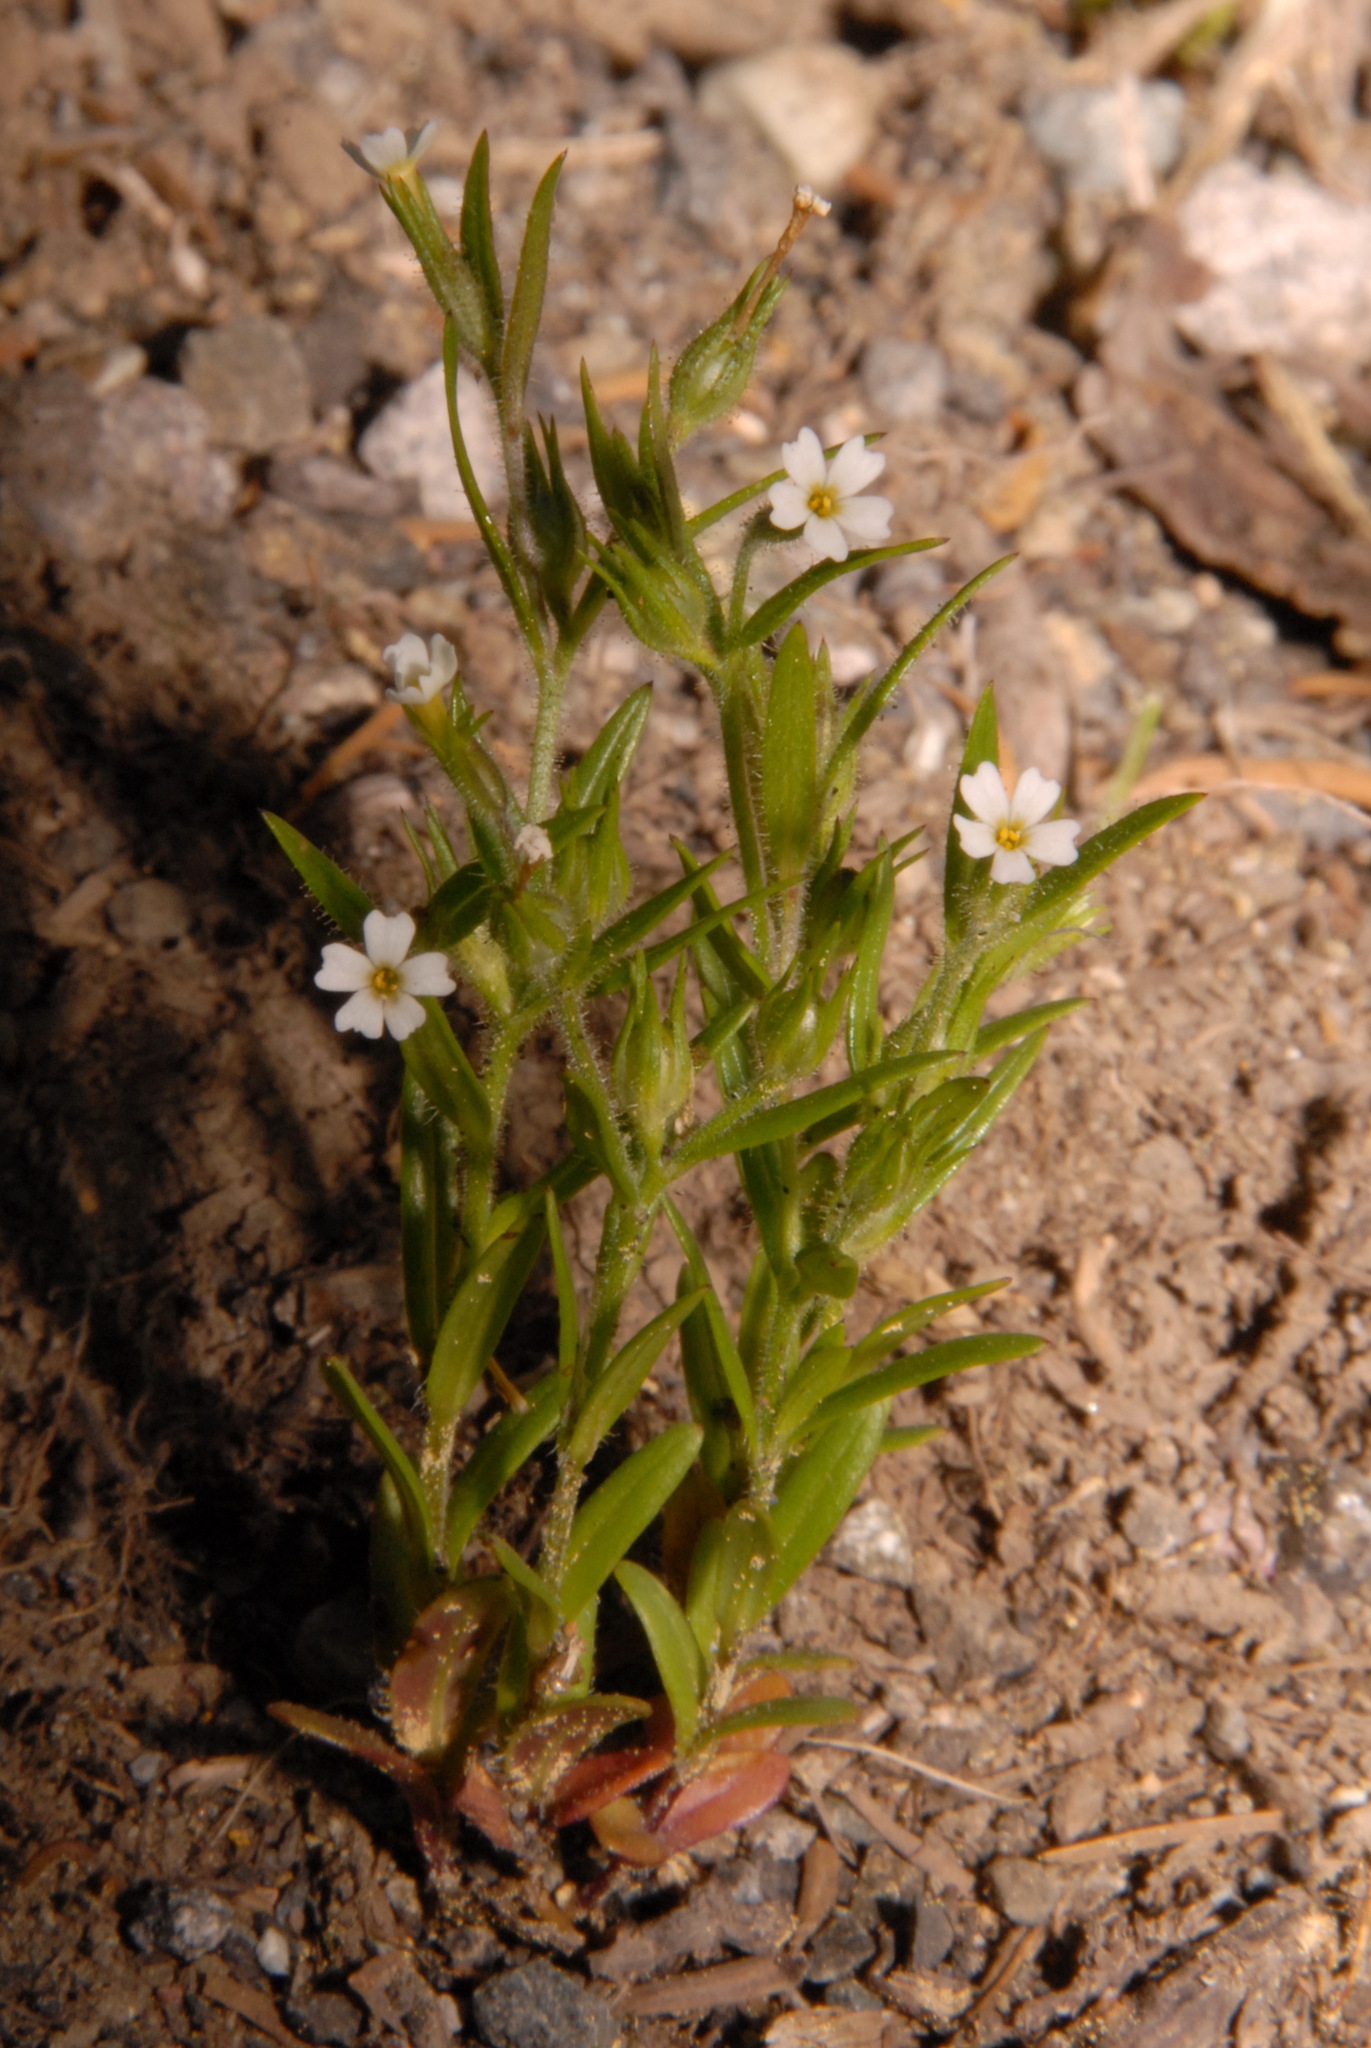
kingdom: Plantae
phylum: Tracheophyta
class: Magnoliopsida
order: Ericales
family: Polemoniaceae
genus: Phlox
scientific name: Phlox gracilis
